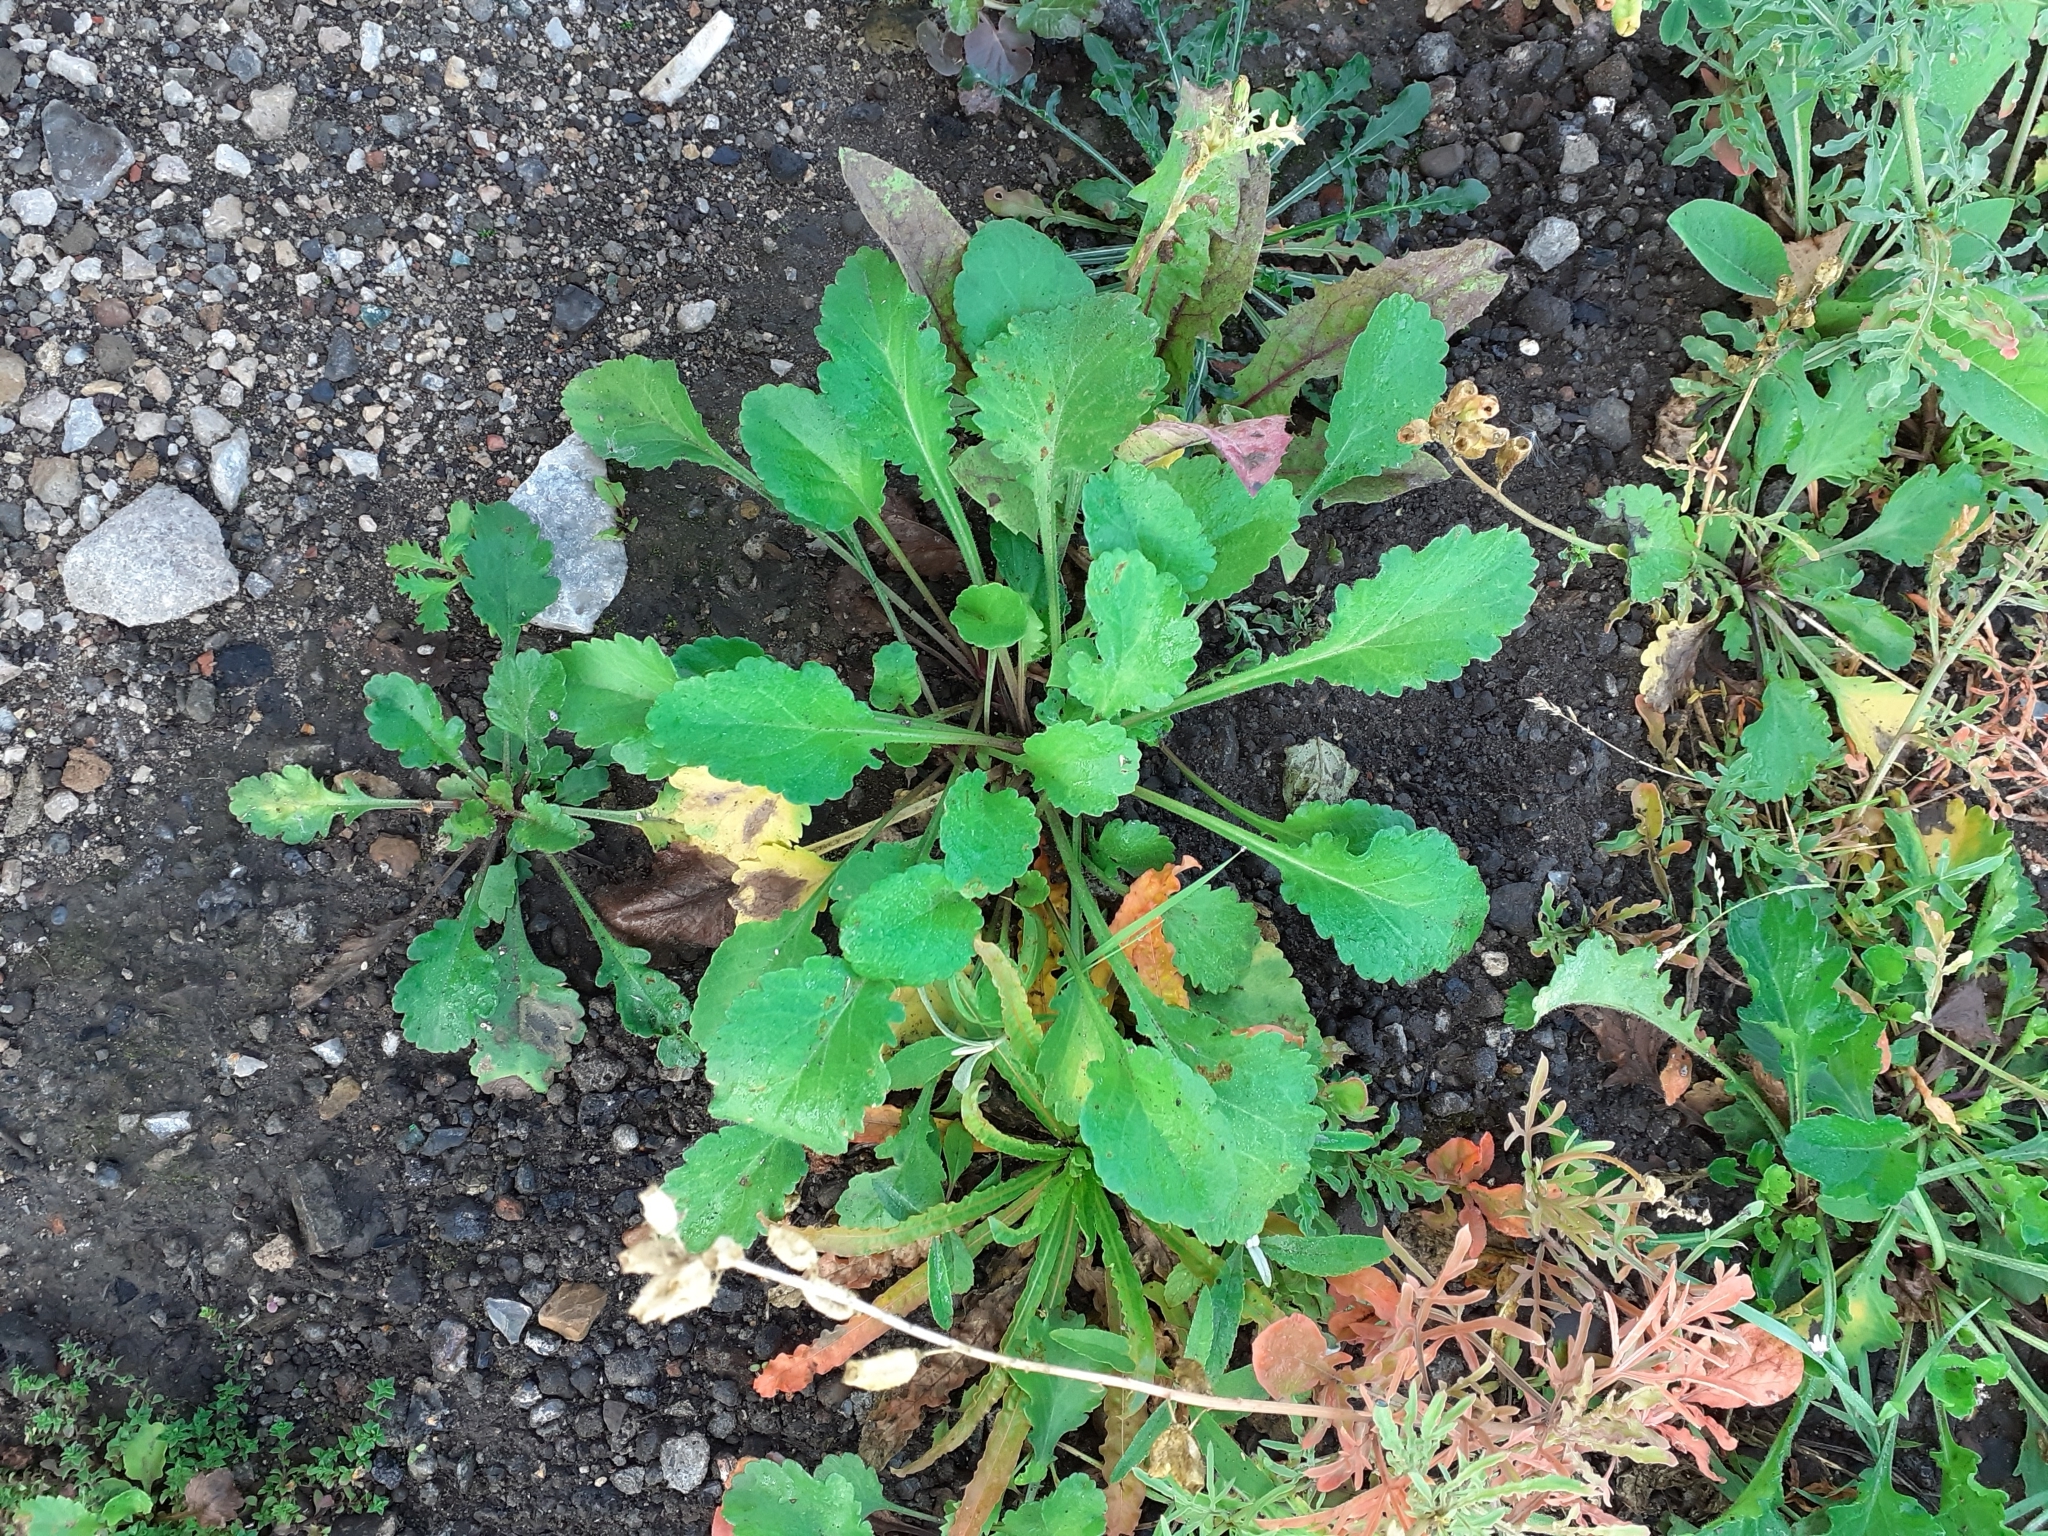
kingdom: Plantae
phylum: Tracheophyta
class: Magnoliopsida
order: Asterales
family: Asteraceae
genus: Leucanthemum
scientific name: Leucanthemum vulgare
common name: Oxeye daisy
